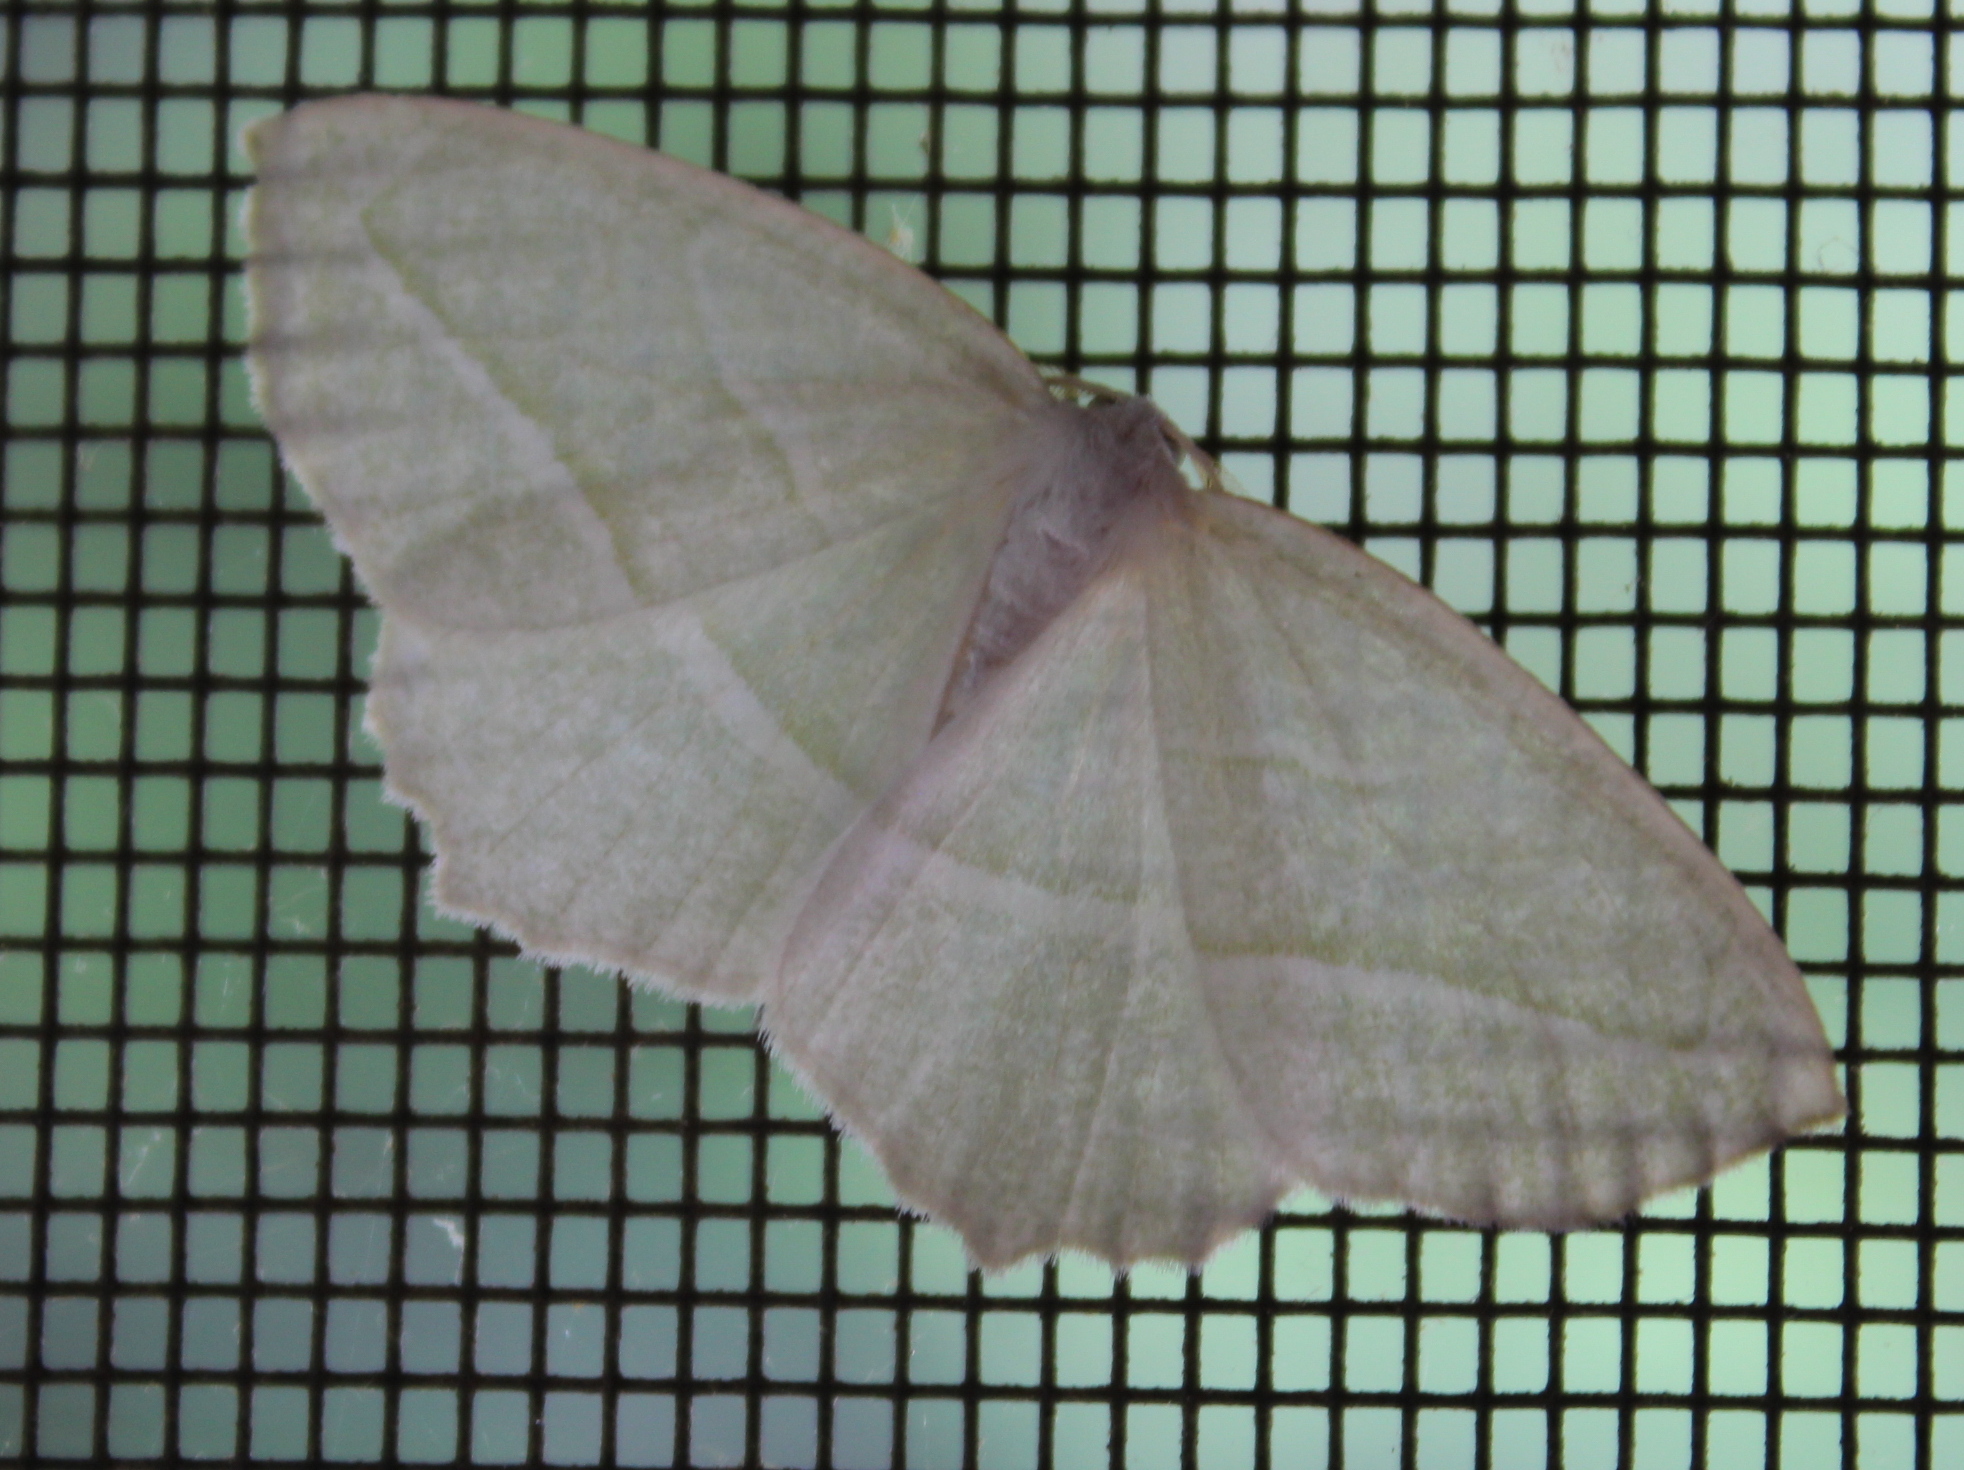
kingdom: Animalia
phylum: Arthropoda
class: Insecta
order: Lepidoptera
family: Geometridae
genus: Campaea
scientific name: Campaea perlata
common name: Fringed looper
